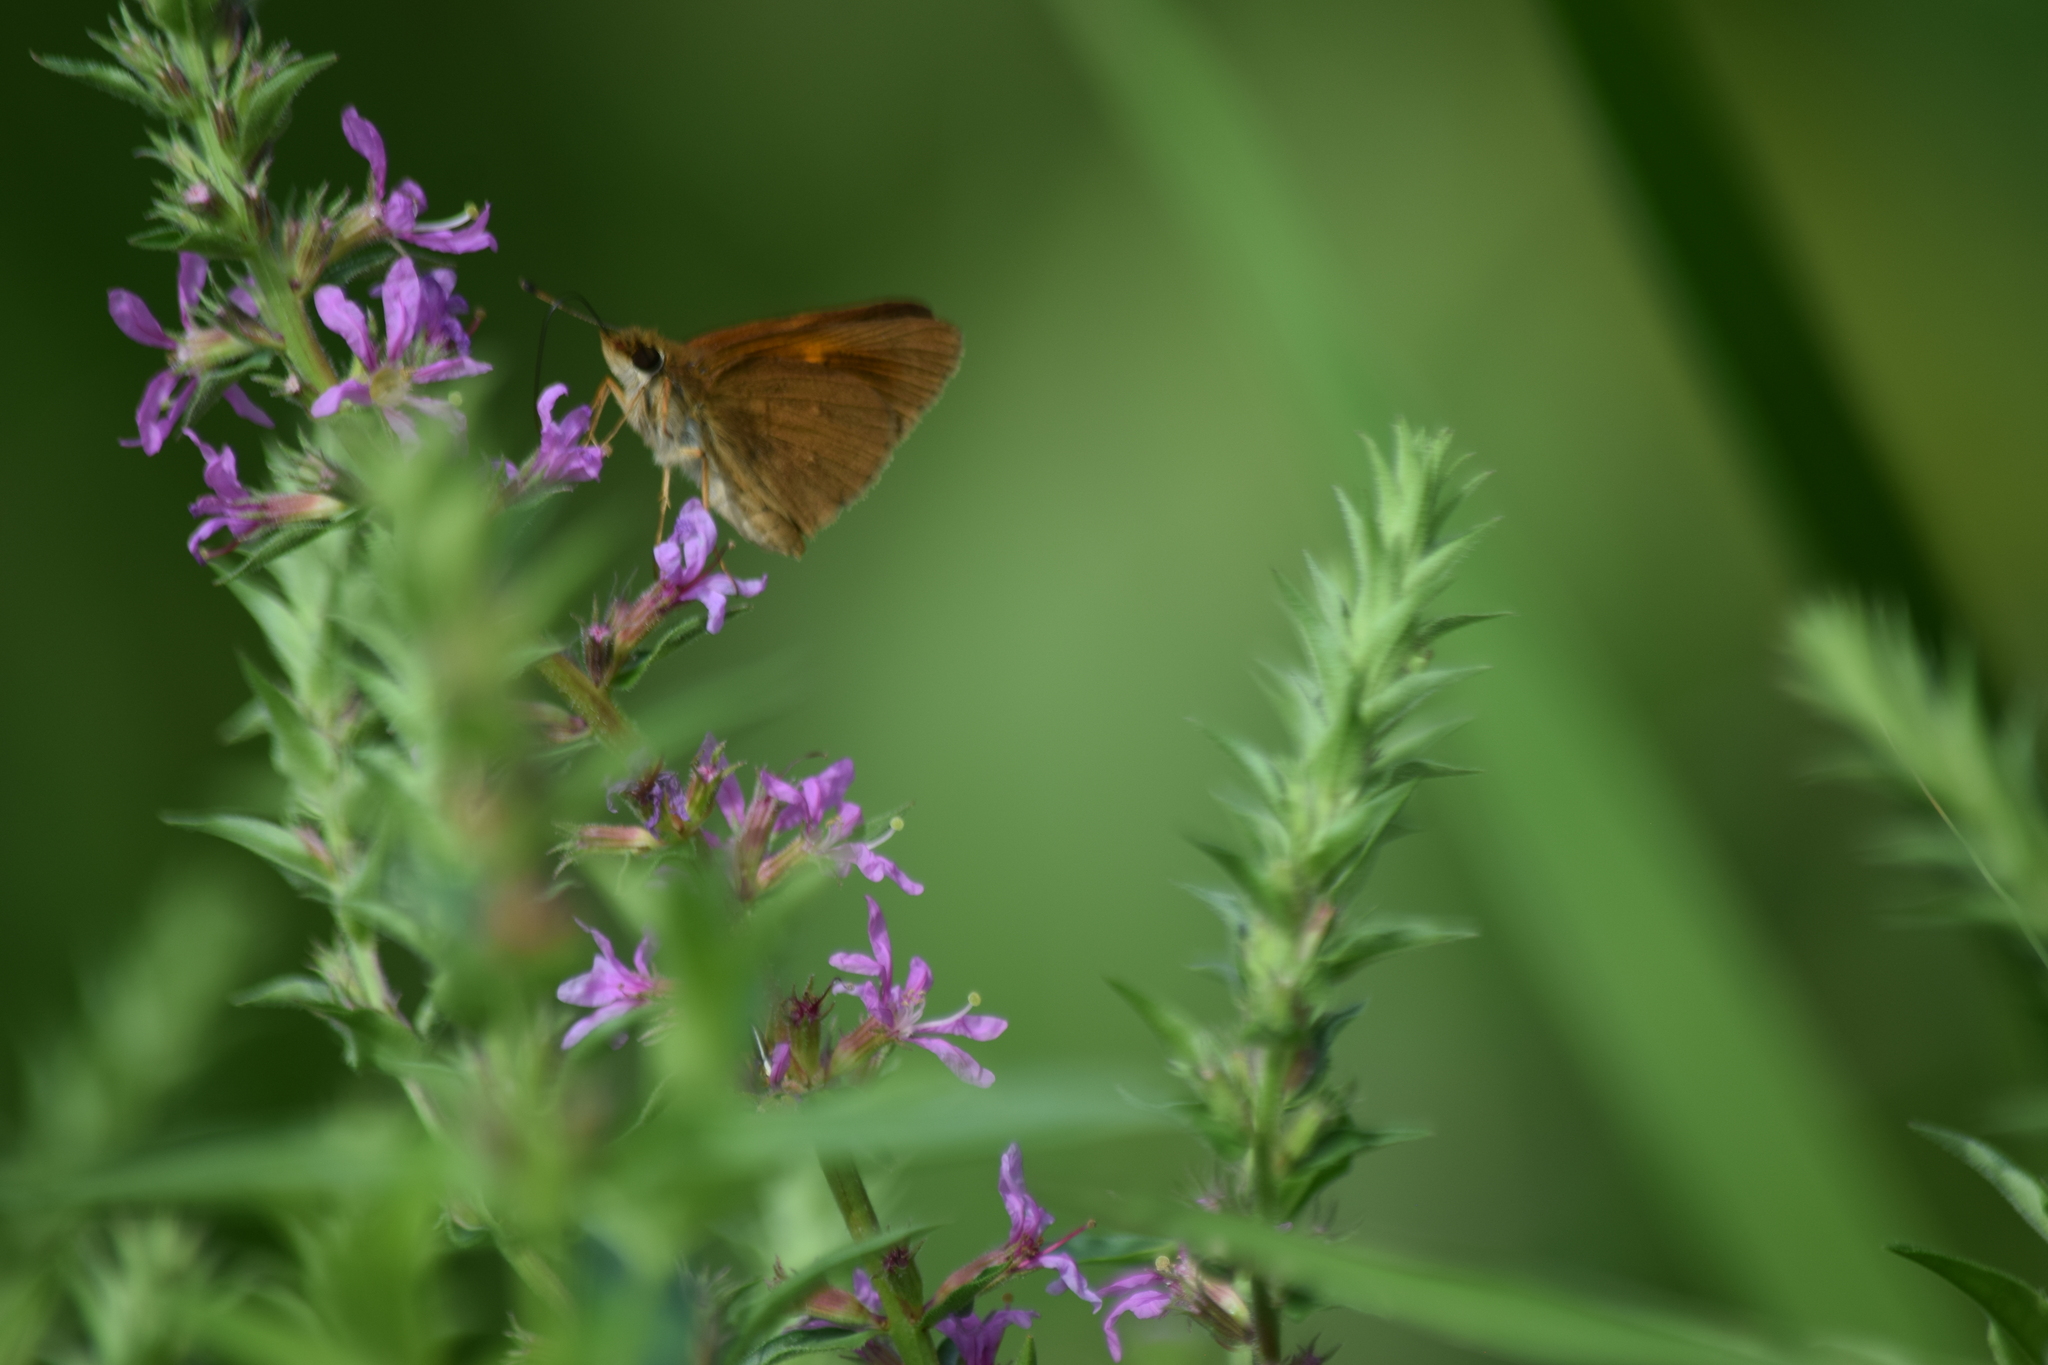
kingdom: Animalia
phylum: Arthropoda
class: Insecta
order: Lepidoptera
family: Hesperiidae
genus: Poanes
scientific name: Poanes viator
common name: Broad-winged skipper
